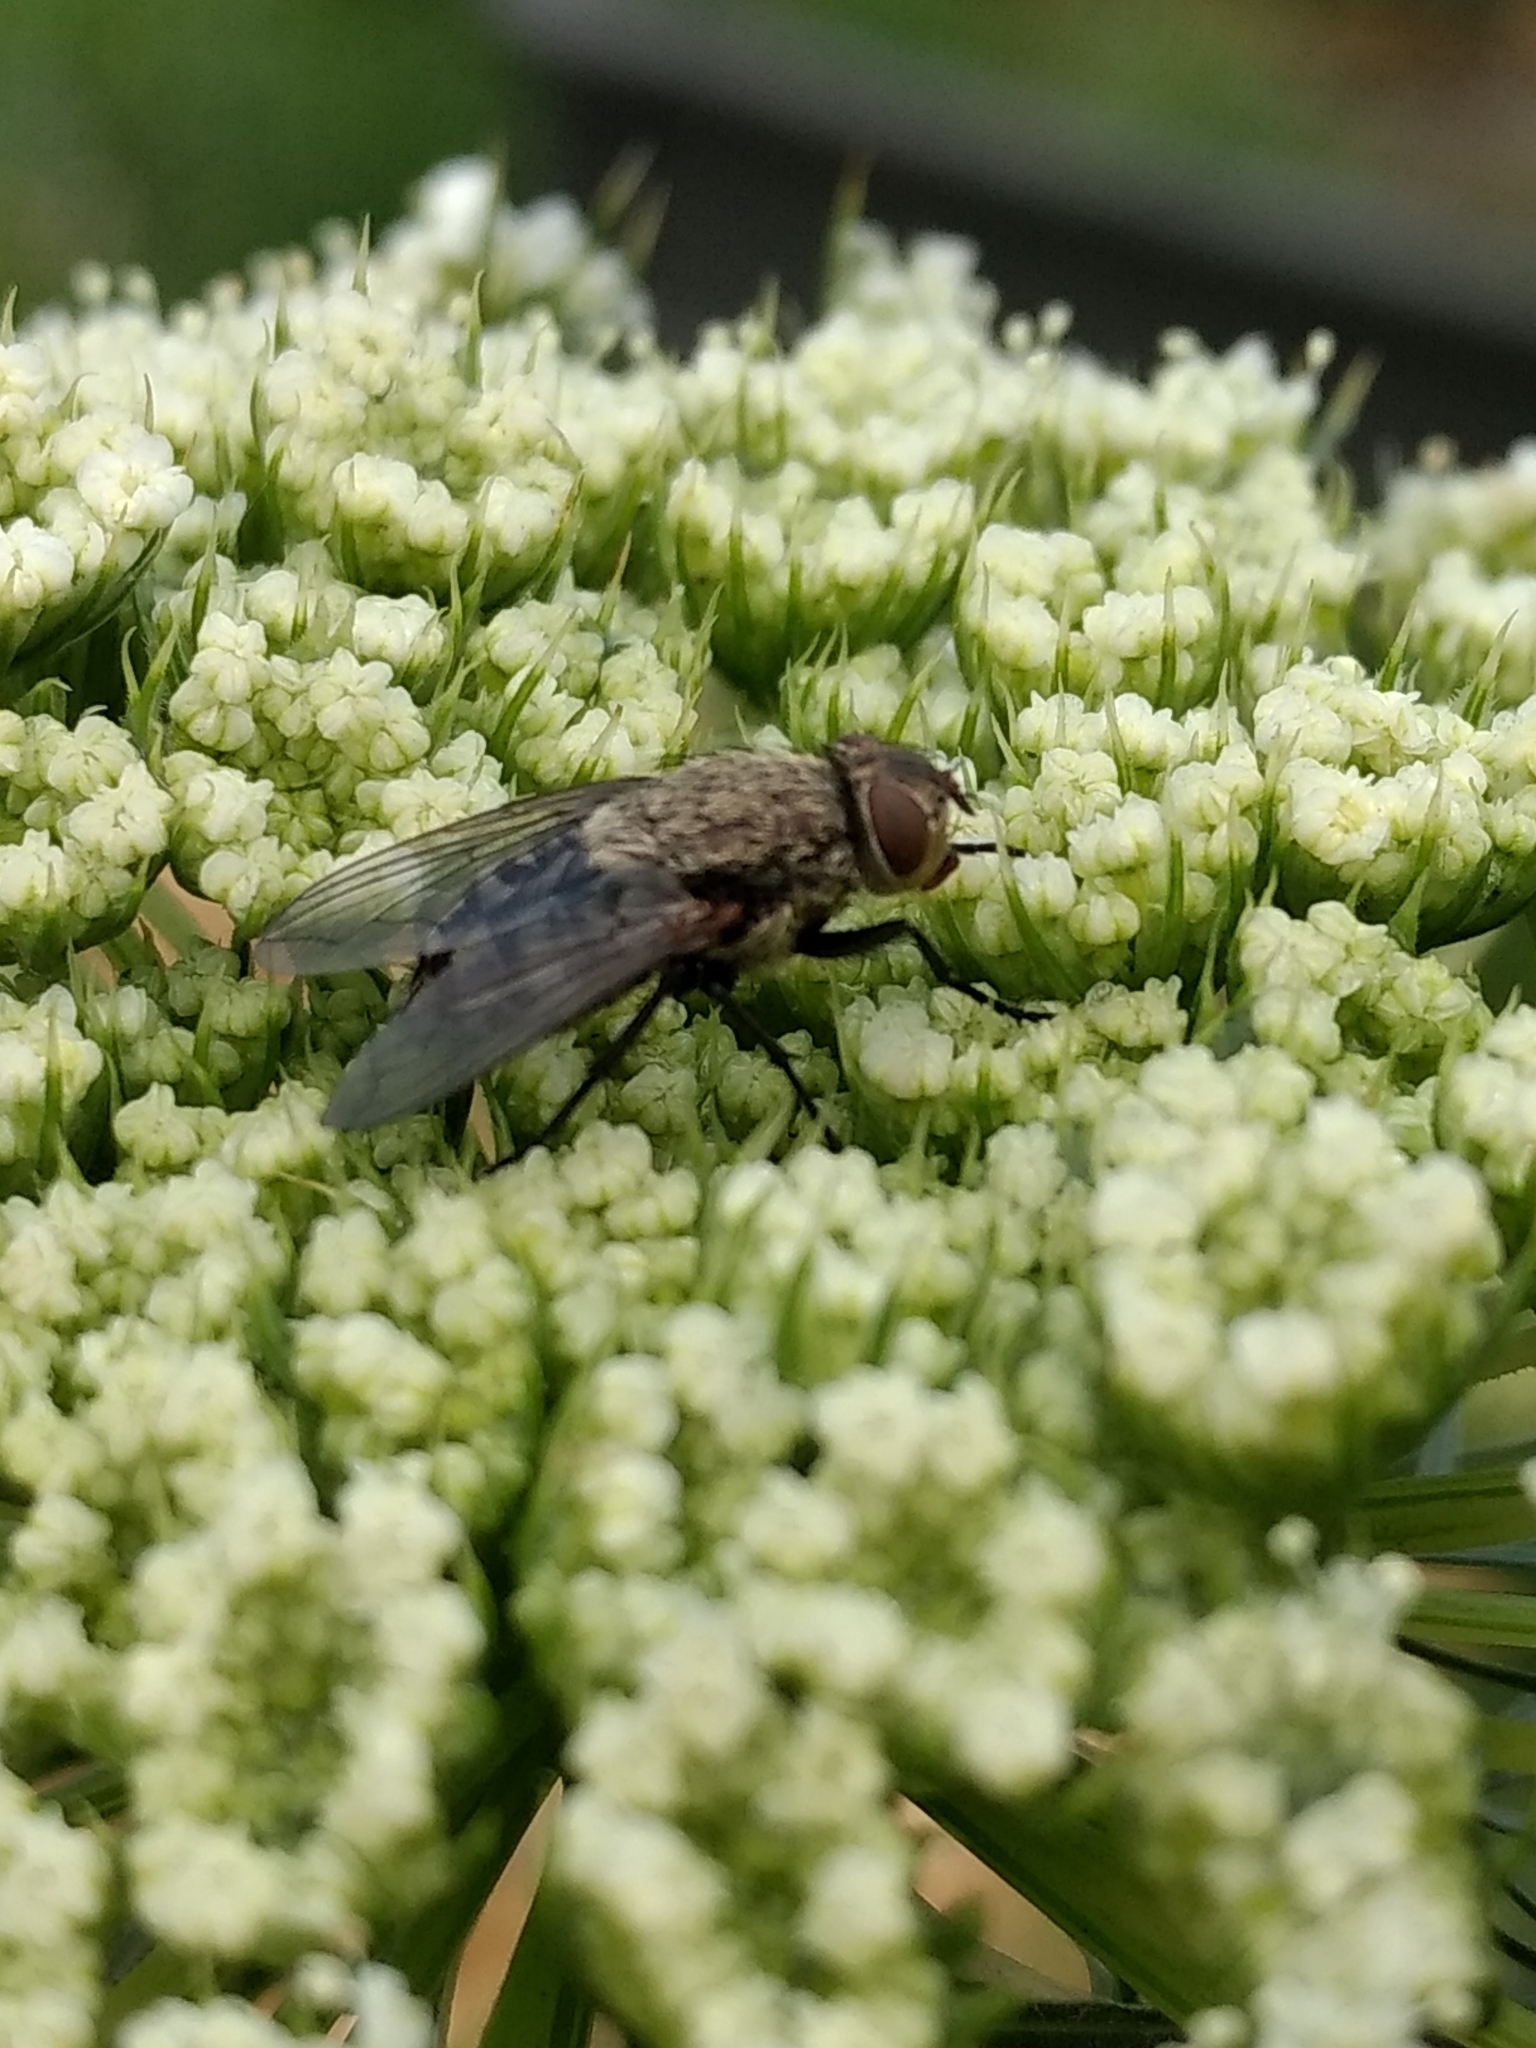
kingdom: Animalia
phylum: Arthropoda
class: Insecta
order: Diptera
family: Polleniidae
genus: Pollenia
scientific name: Pollenia
